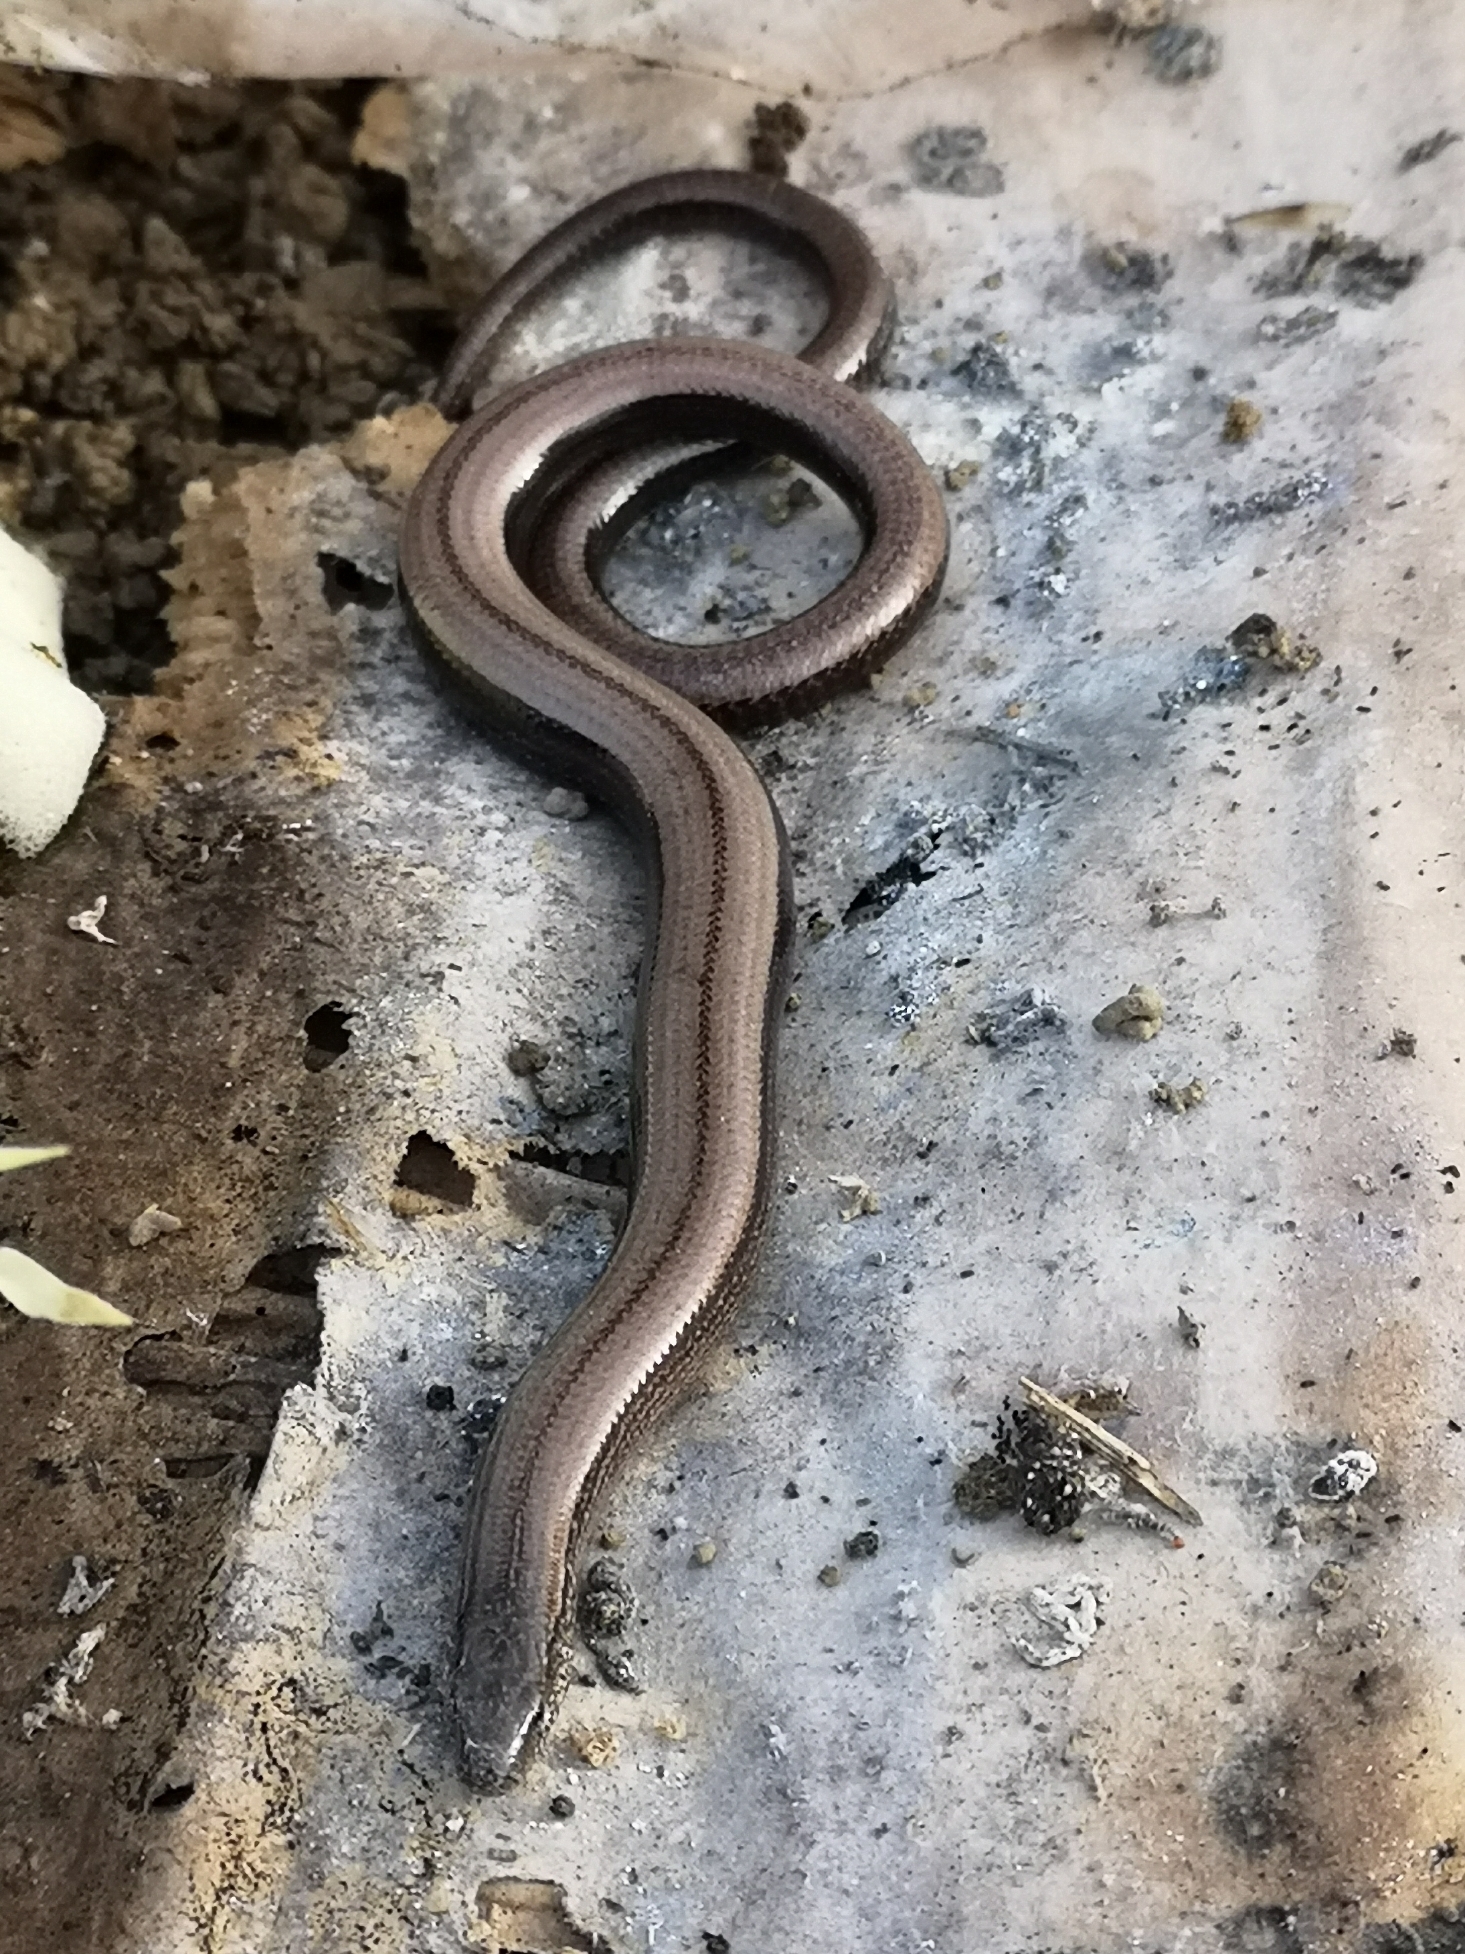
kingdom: Animalia
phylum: Chordata
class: Squamata
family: Anguidae
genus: Anguis
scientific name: Anguis
